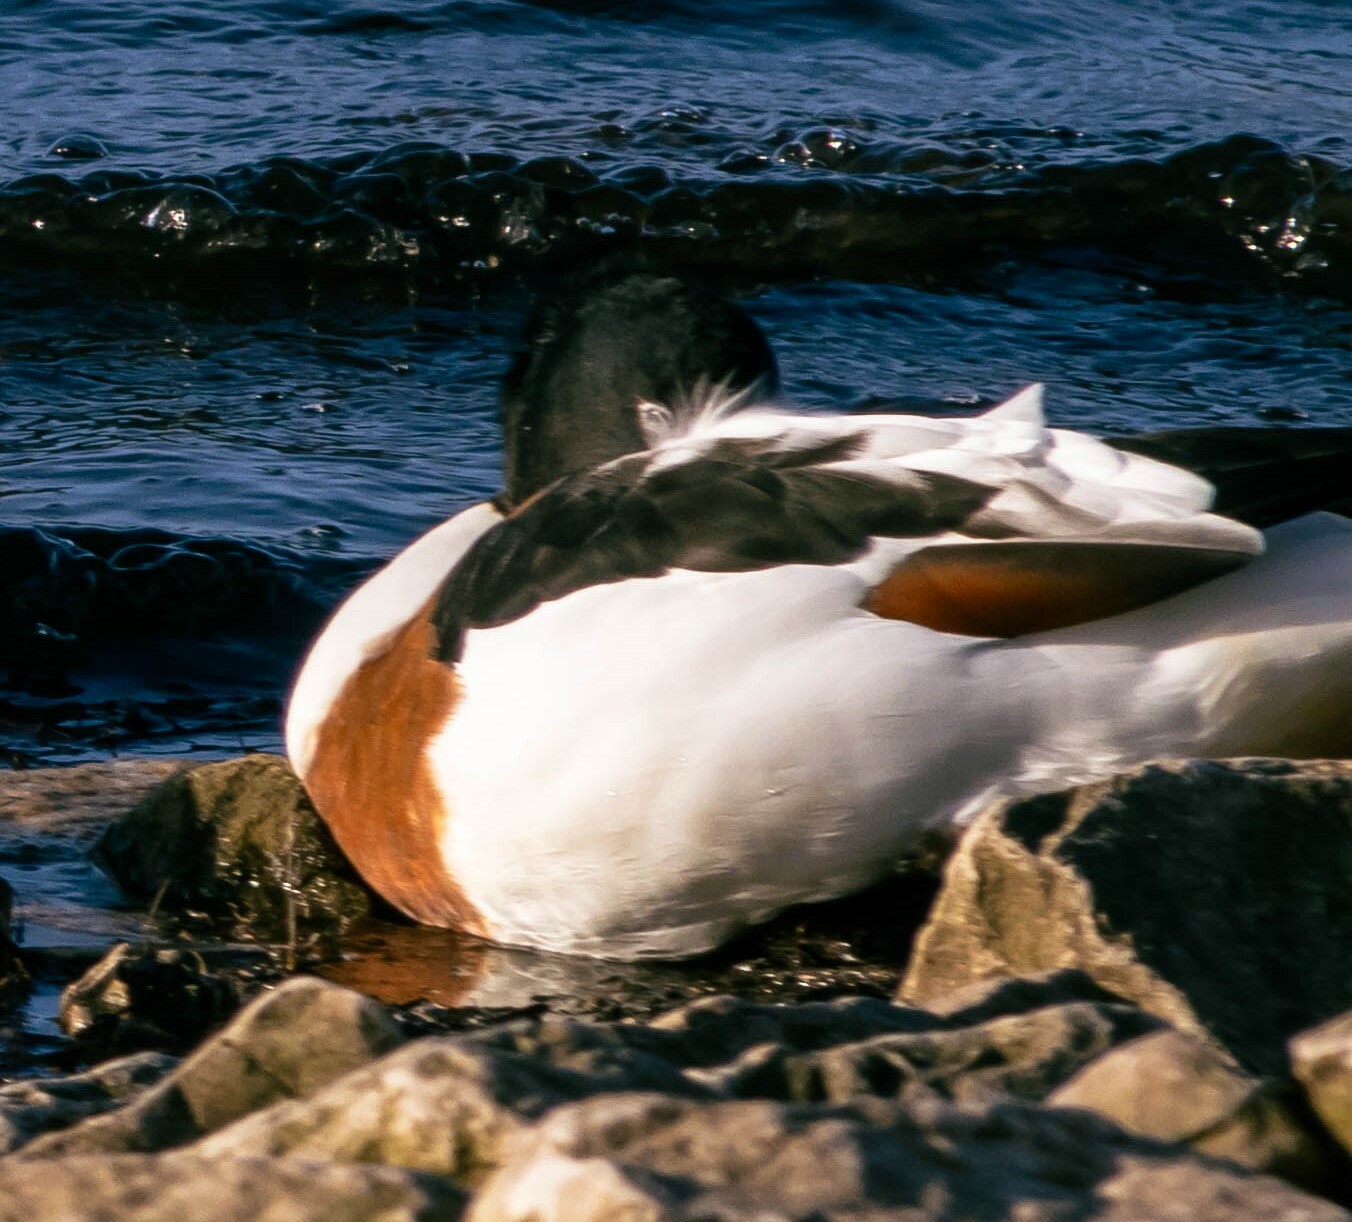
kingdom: Animalia
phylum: Chordata
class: Aves
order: Anseriformes
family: Anatidae
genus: Tadorna
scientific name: Tadorna tadorna
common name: Common shelduck
